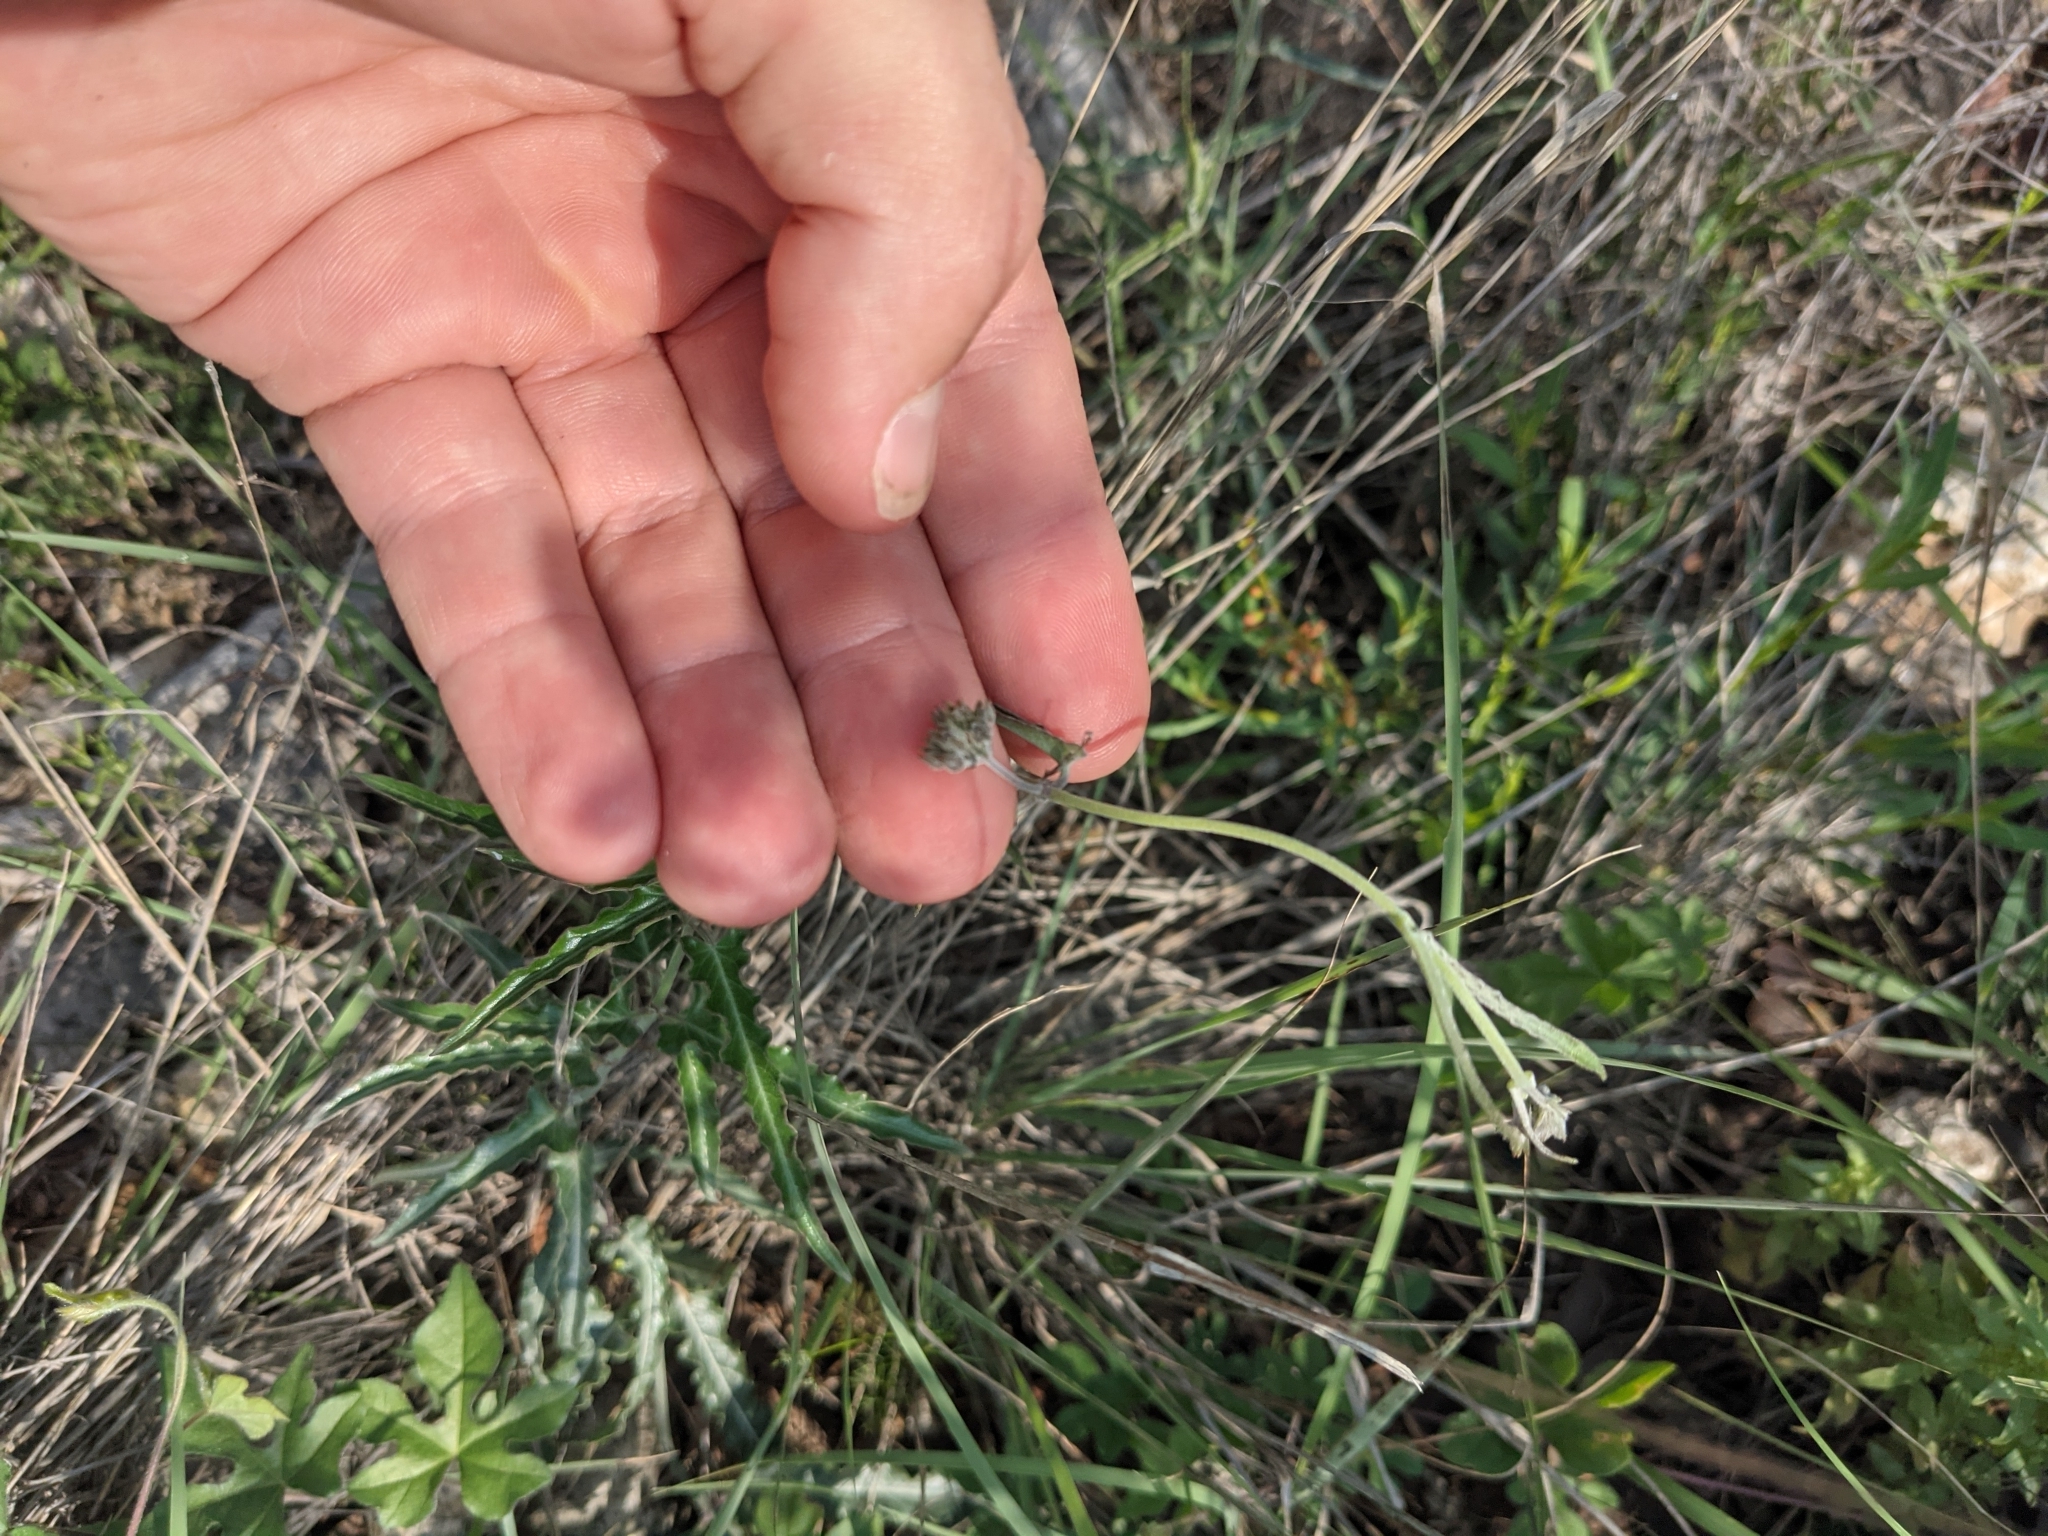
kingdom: Plantae
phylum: Tracheophyta
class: Magnoliopsida
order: Gentianales
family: Apocynaceae
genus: Funastrum
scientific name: Funastrum crispum
